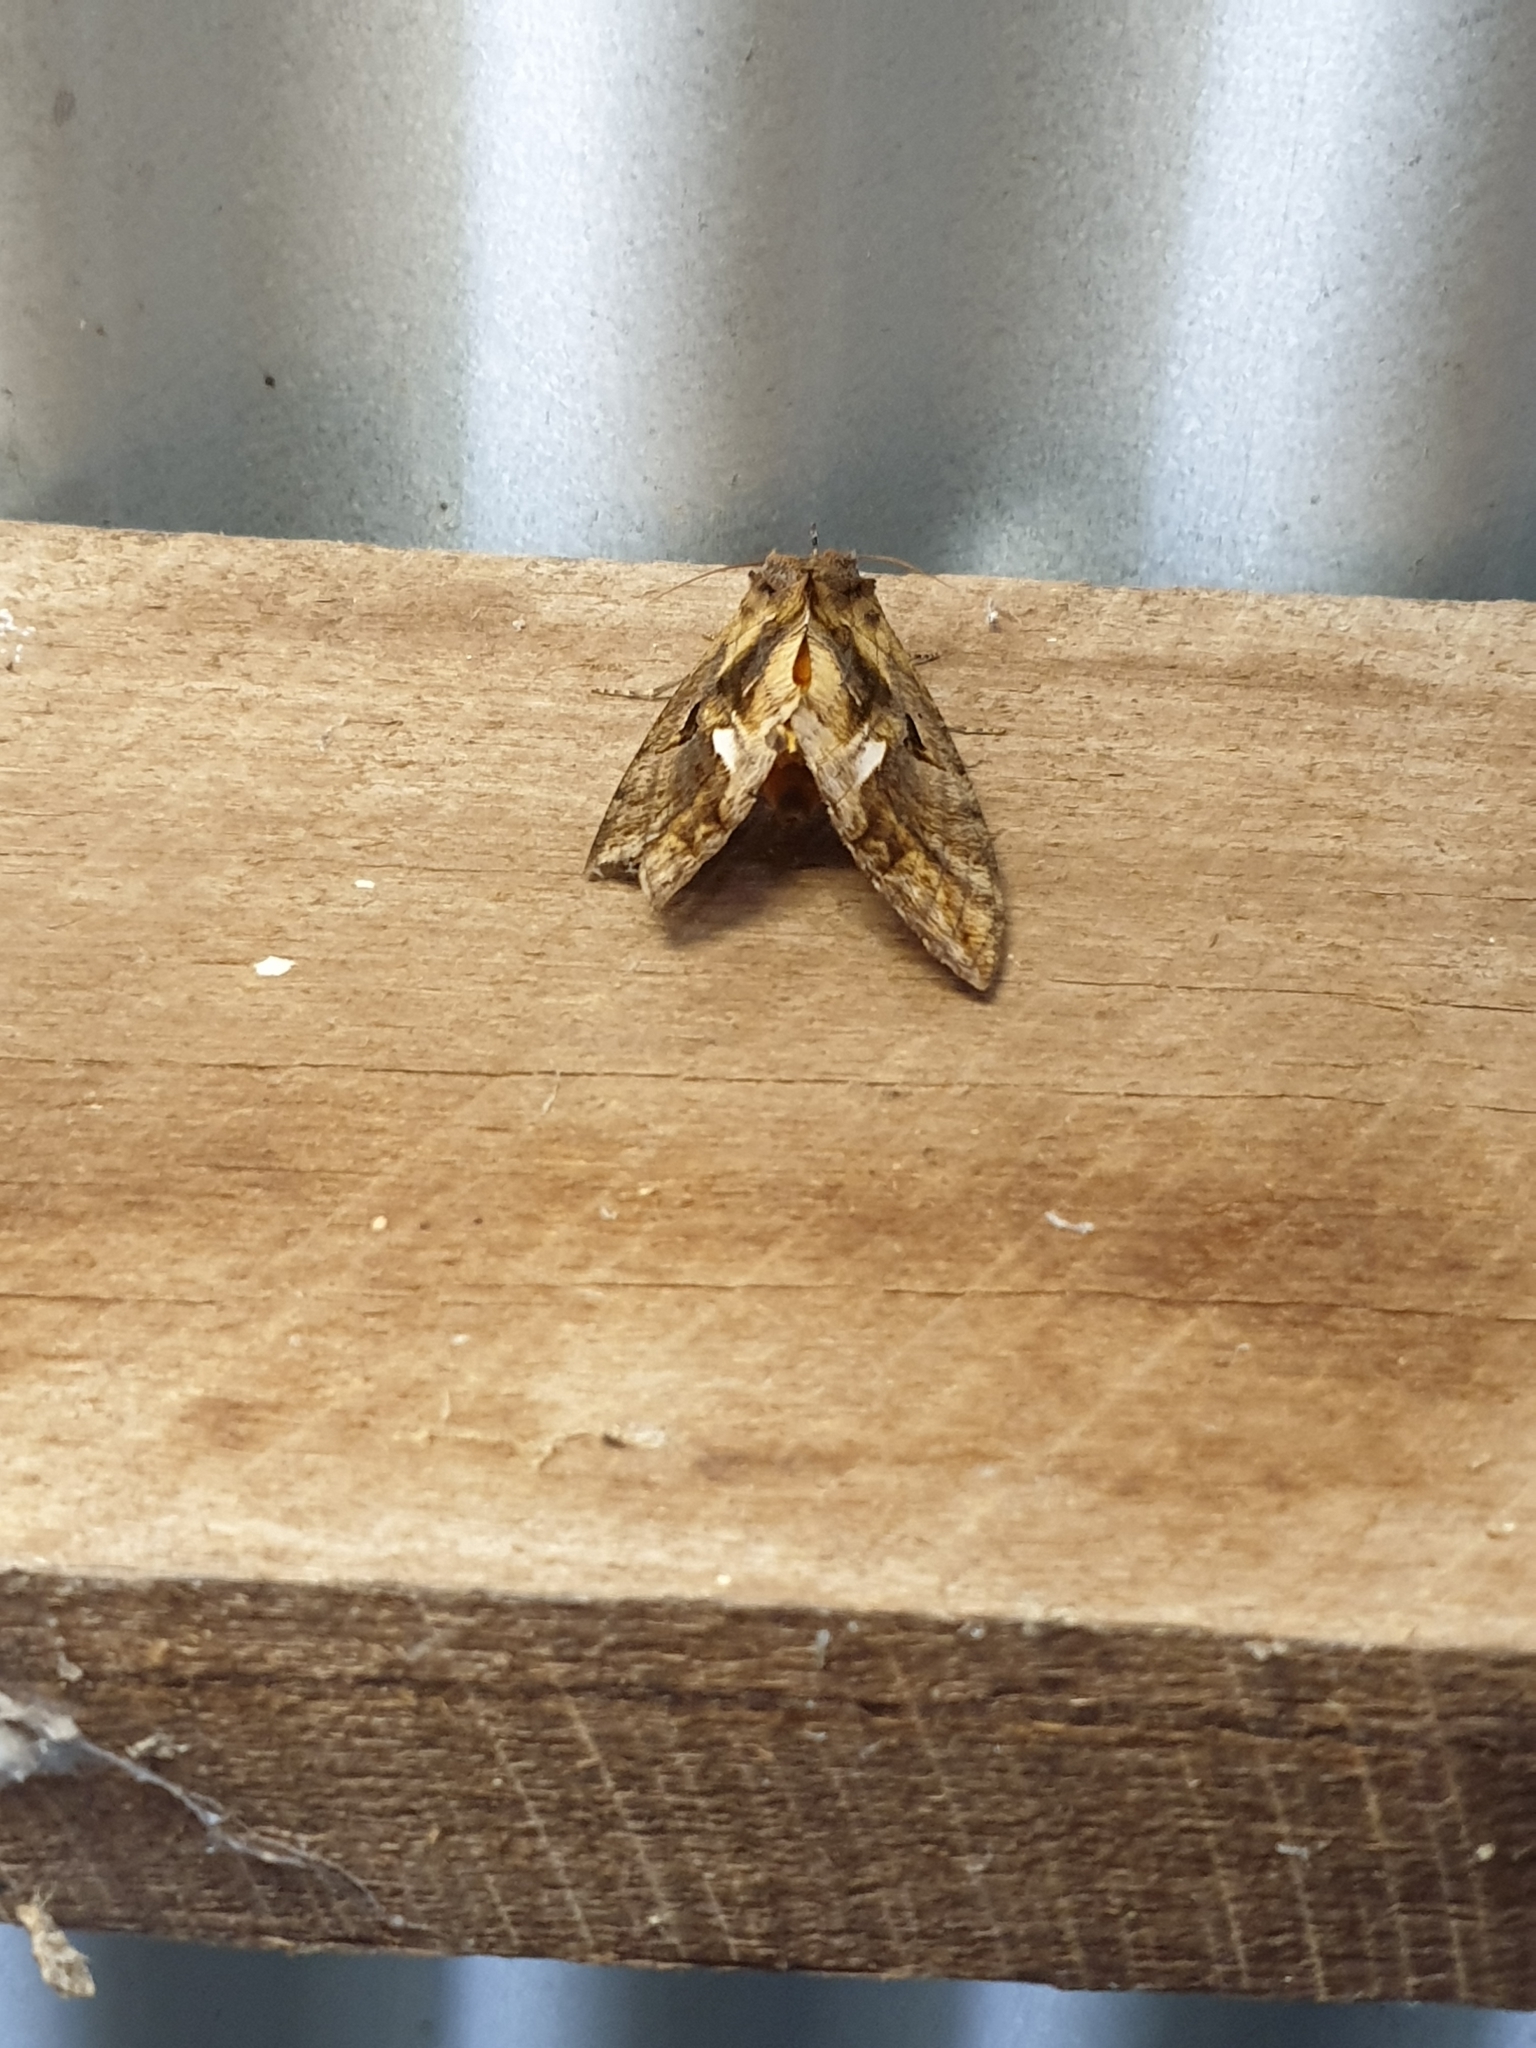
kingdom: Animalia
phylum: Arthropoda
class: Insecta
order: Lepidoptera
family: Erebidae
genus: Eudocima
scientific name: Eudocima phalonia
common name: Wasp
